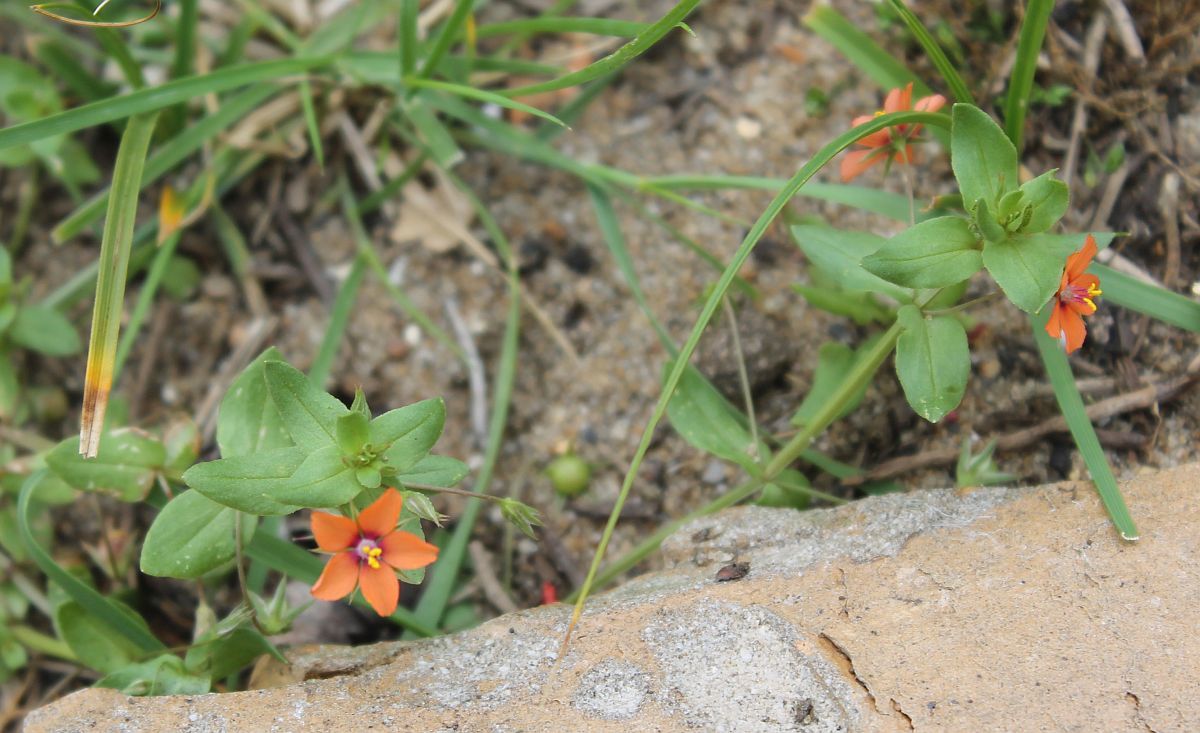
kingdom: Plantae
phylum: Tracheophyta
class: Magnoliopsida
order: Ericales
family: Primulaceae
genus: Lysimachia
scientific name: Lysimachia arvensis
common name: Scarlet pimpernel
